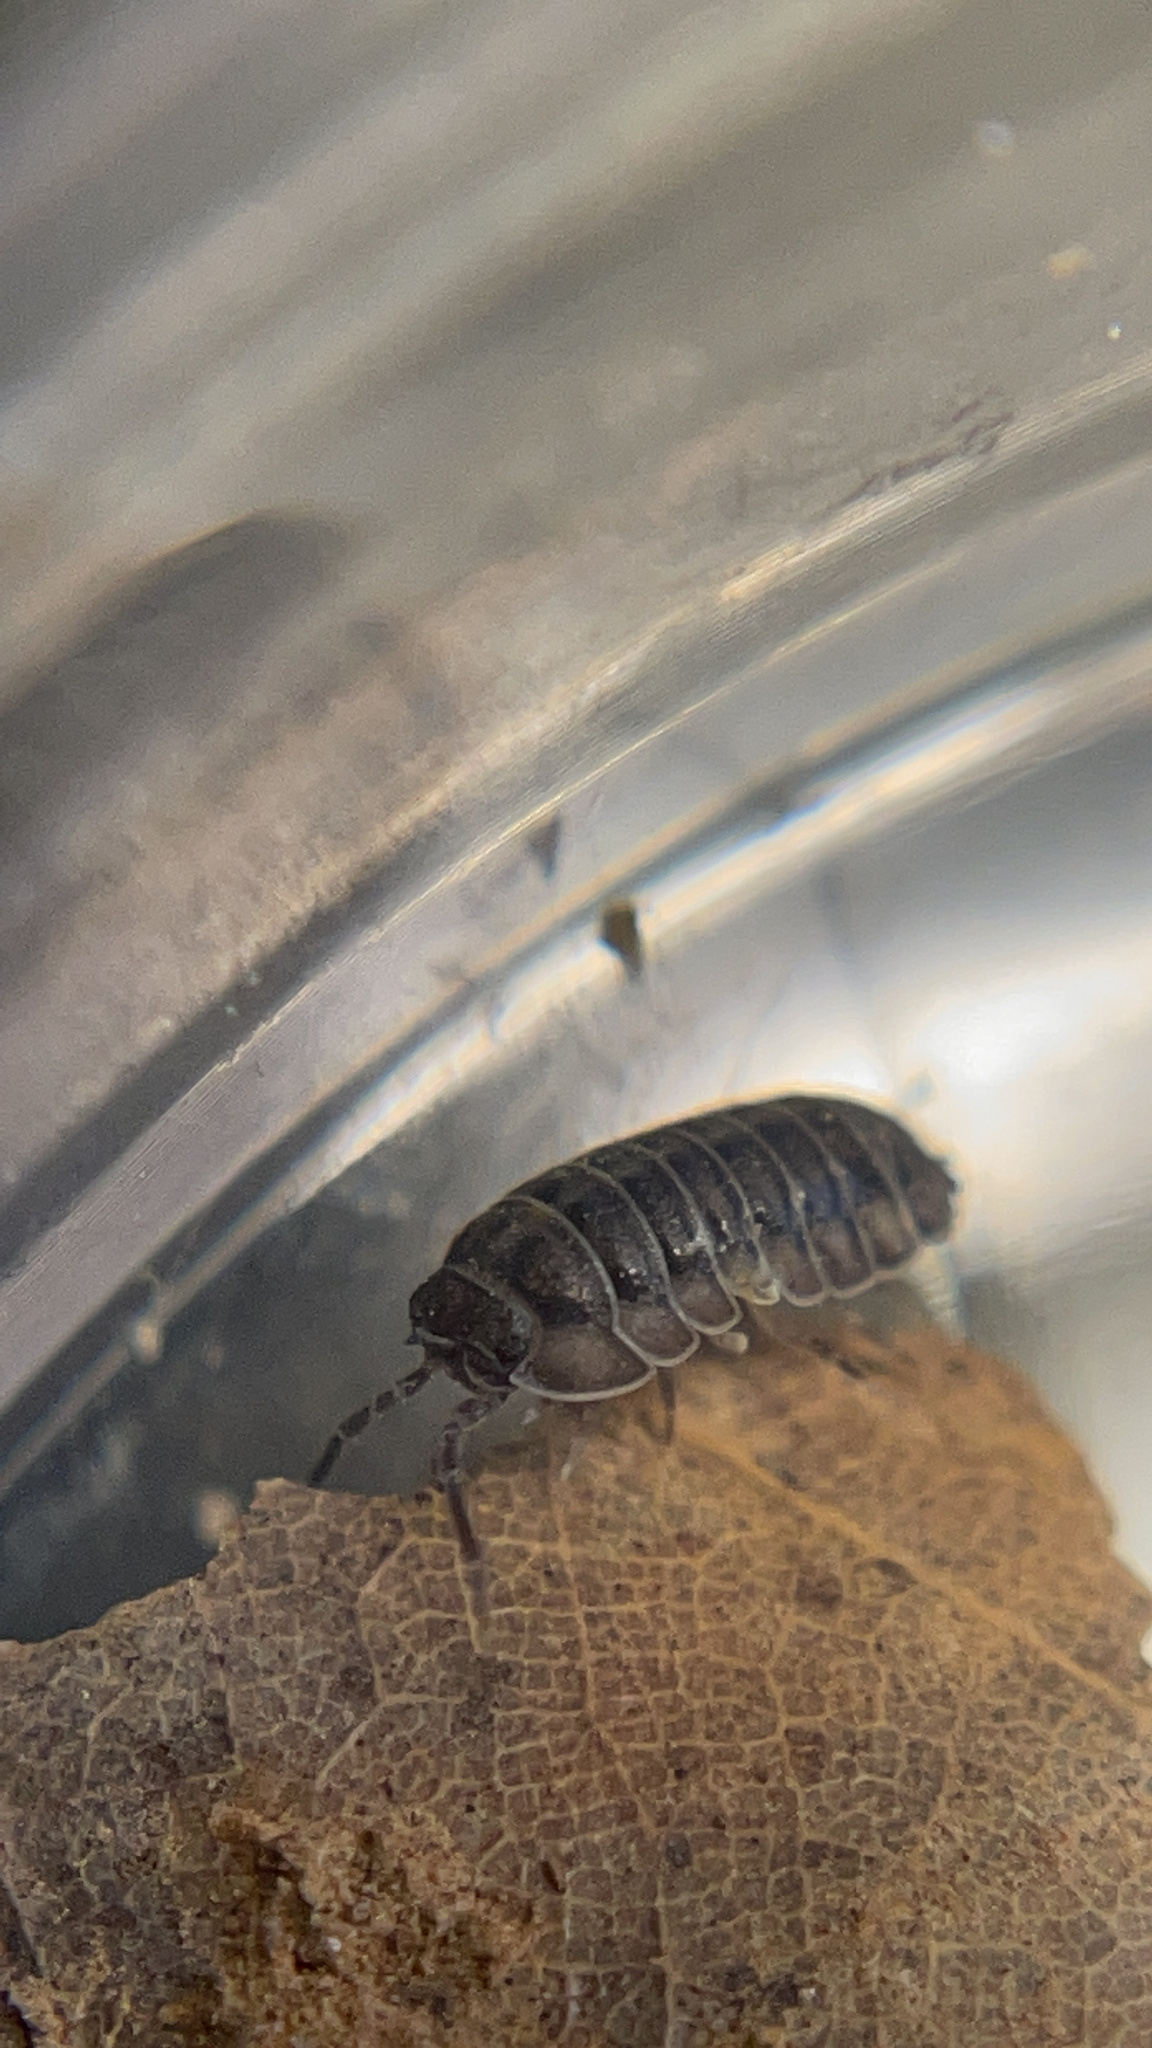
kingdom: Animalia
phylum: Arthropoda
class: Malacostraca
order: Isopoda
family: Armadillidiidae
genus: Armadillidium
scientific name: Armadillidium nasatum
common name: Isopod
